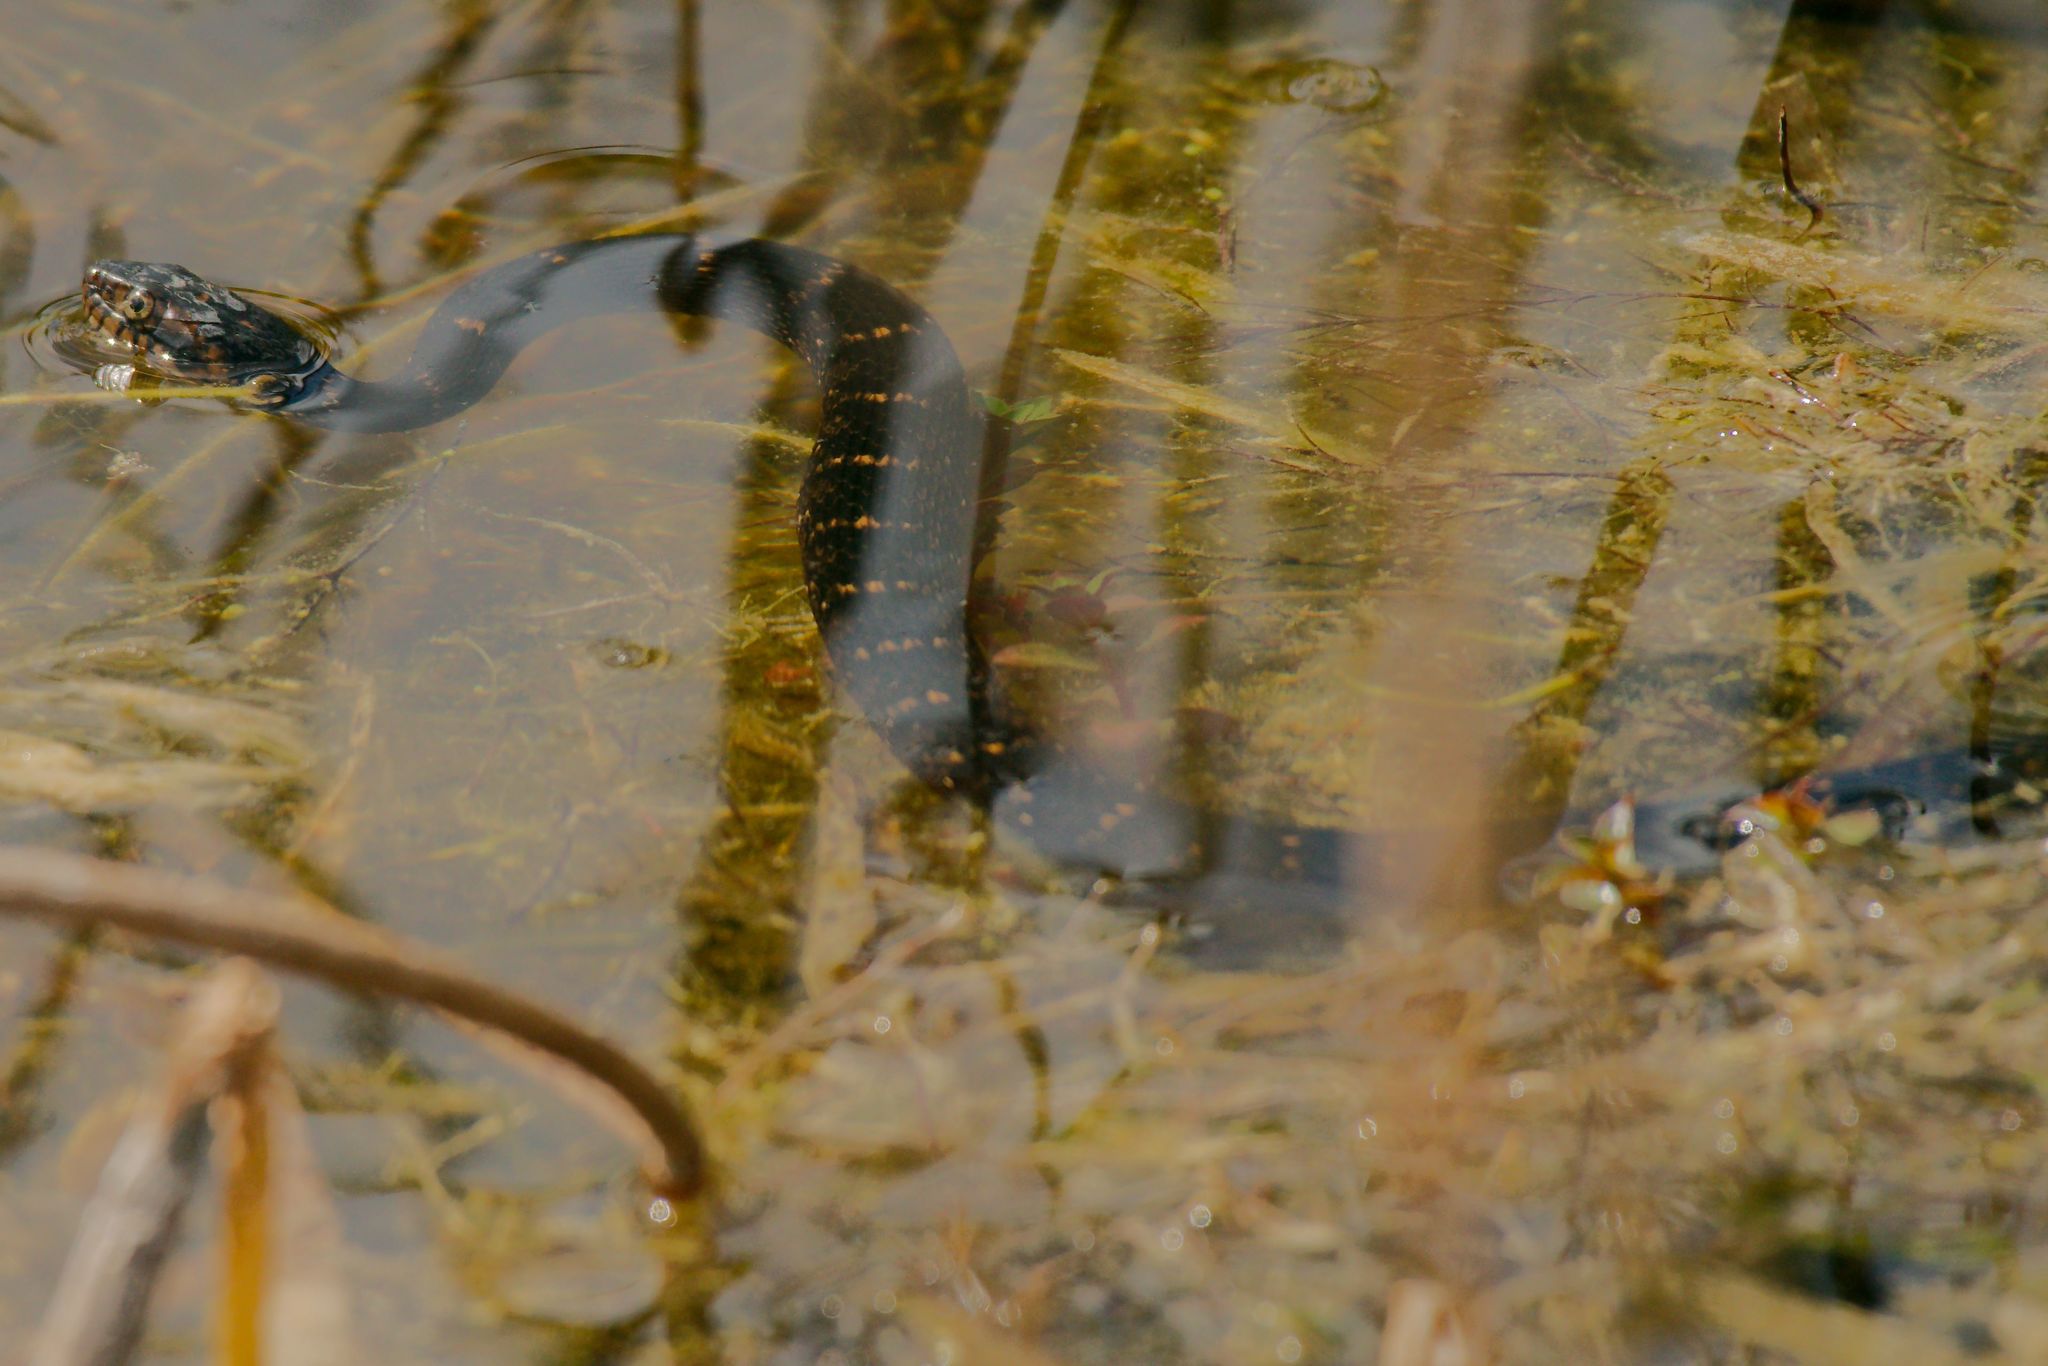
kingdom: Animalia
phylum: Chordata
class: Squamata
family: Colubridae
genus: Nerodia
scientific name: Nerodia fasciata
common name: Southern water snake
